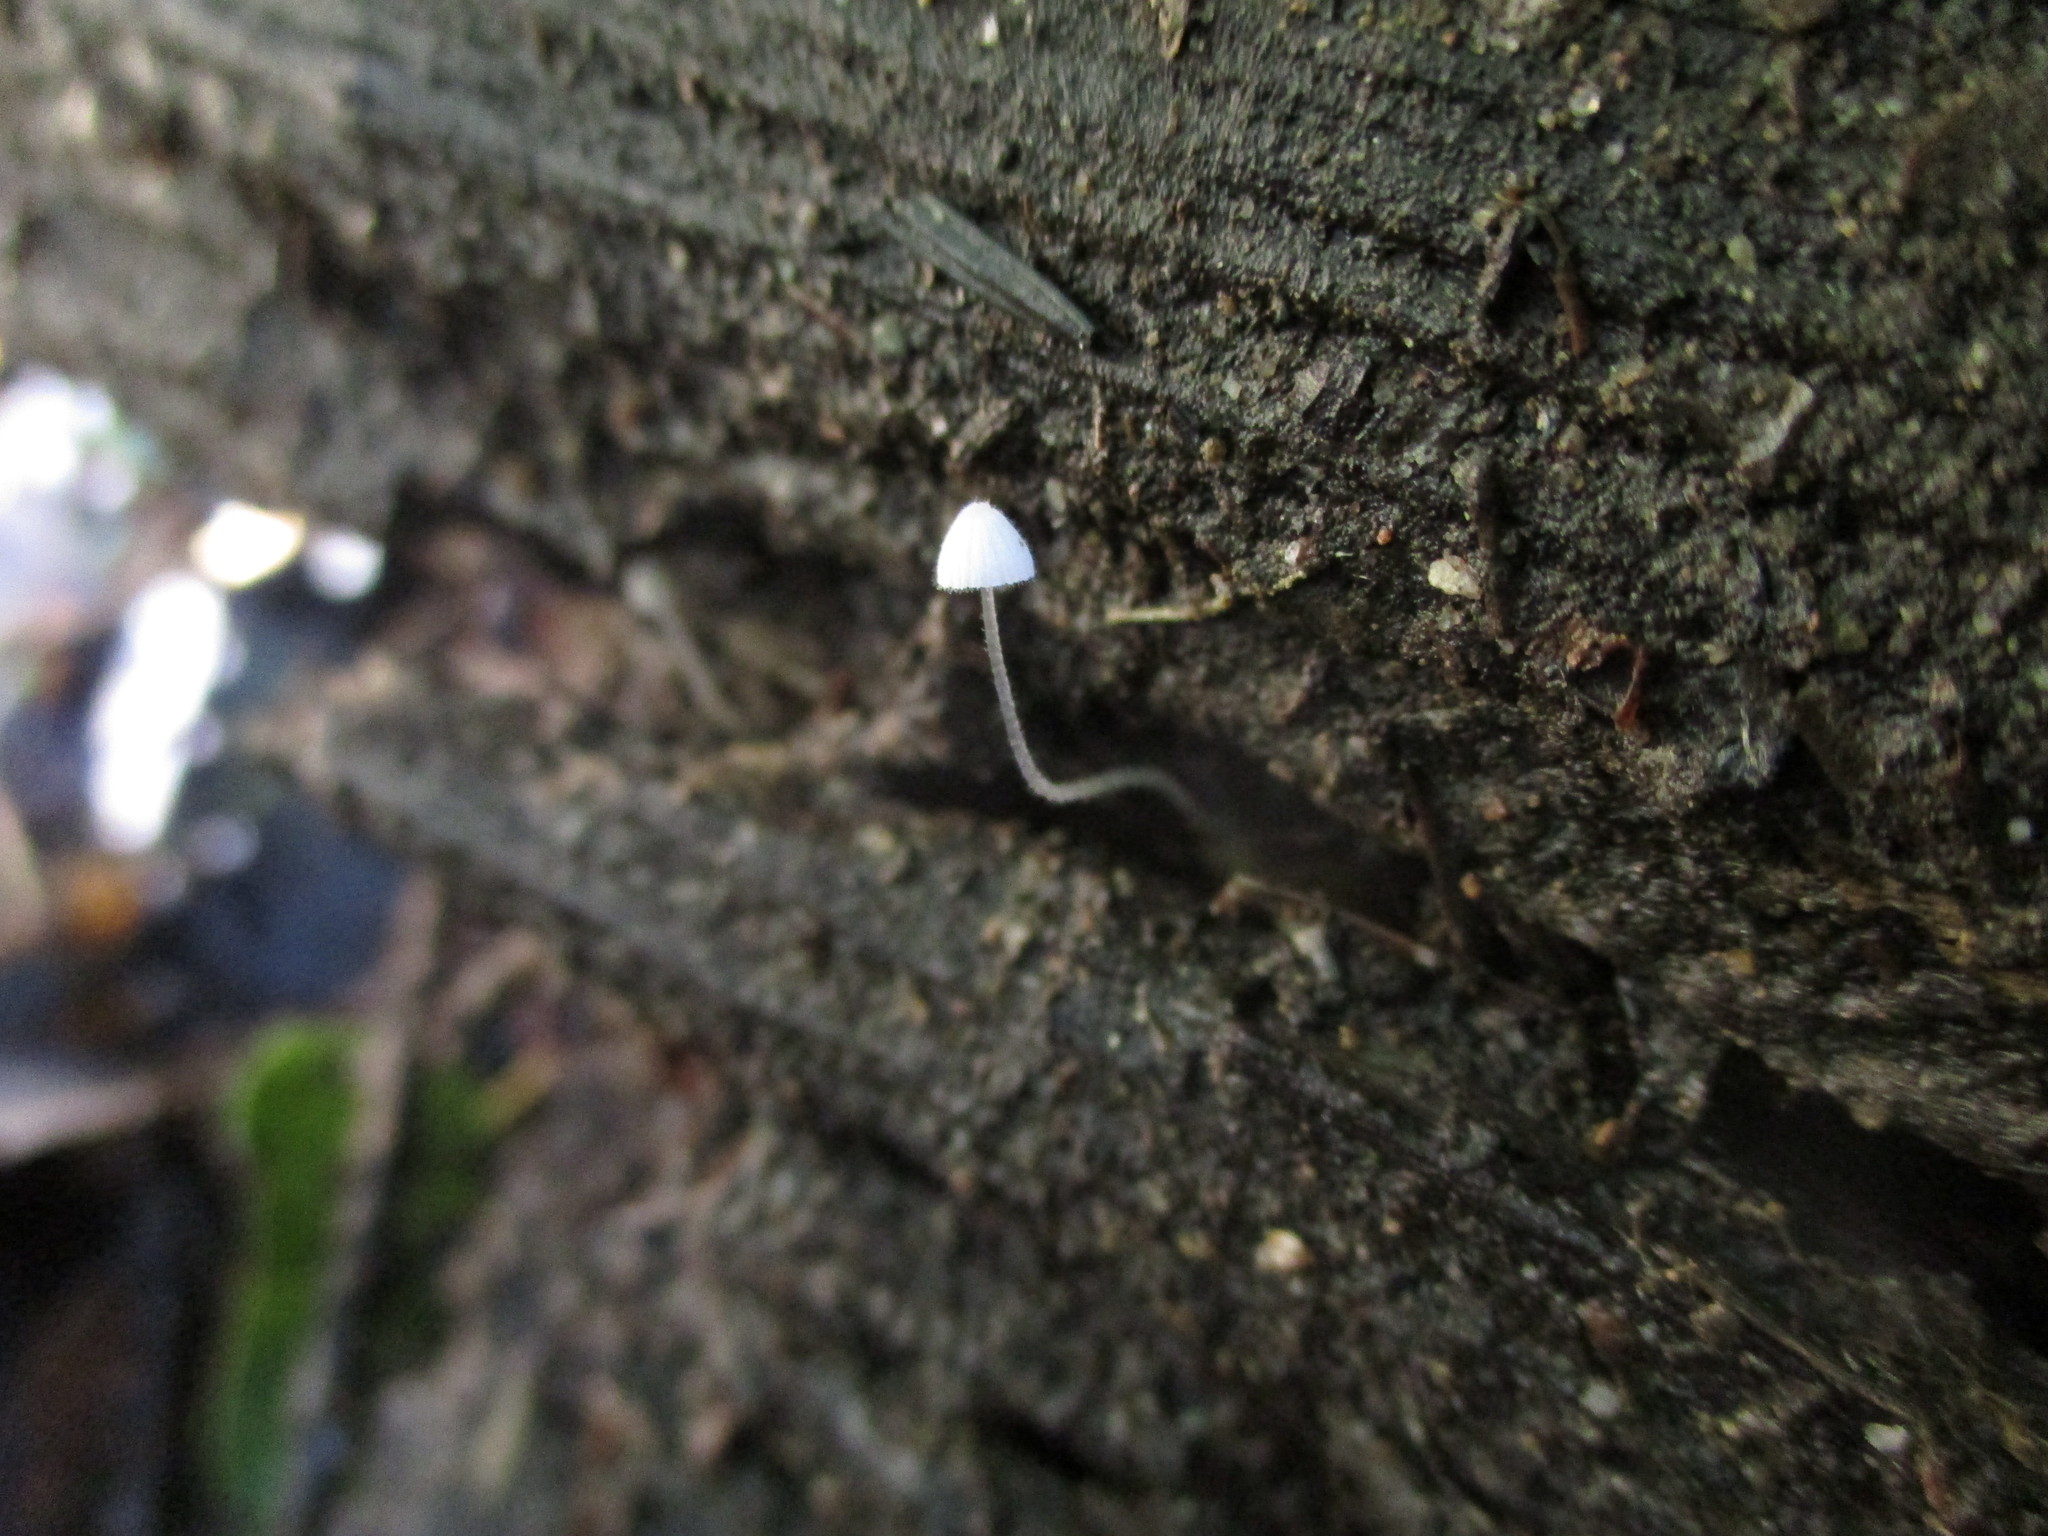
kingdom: Fungi
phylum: Basidiomycota
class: Agaricomycetes
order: Agaricales
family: Mycenaceae
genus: Mycena
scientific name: Mycena aciculata
